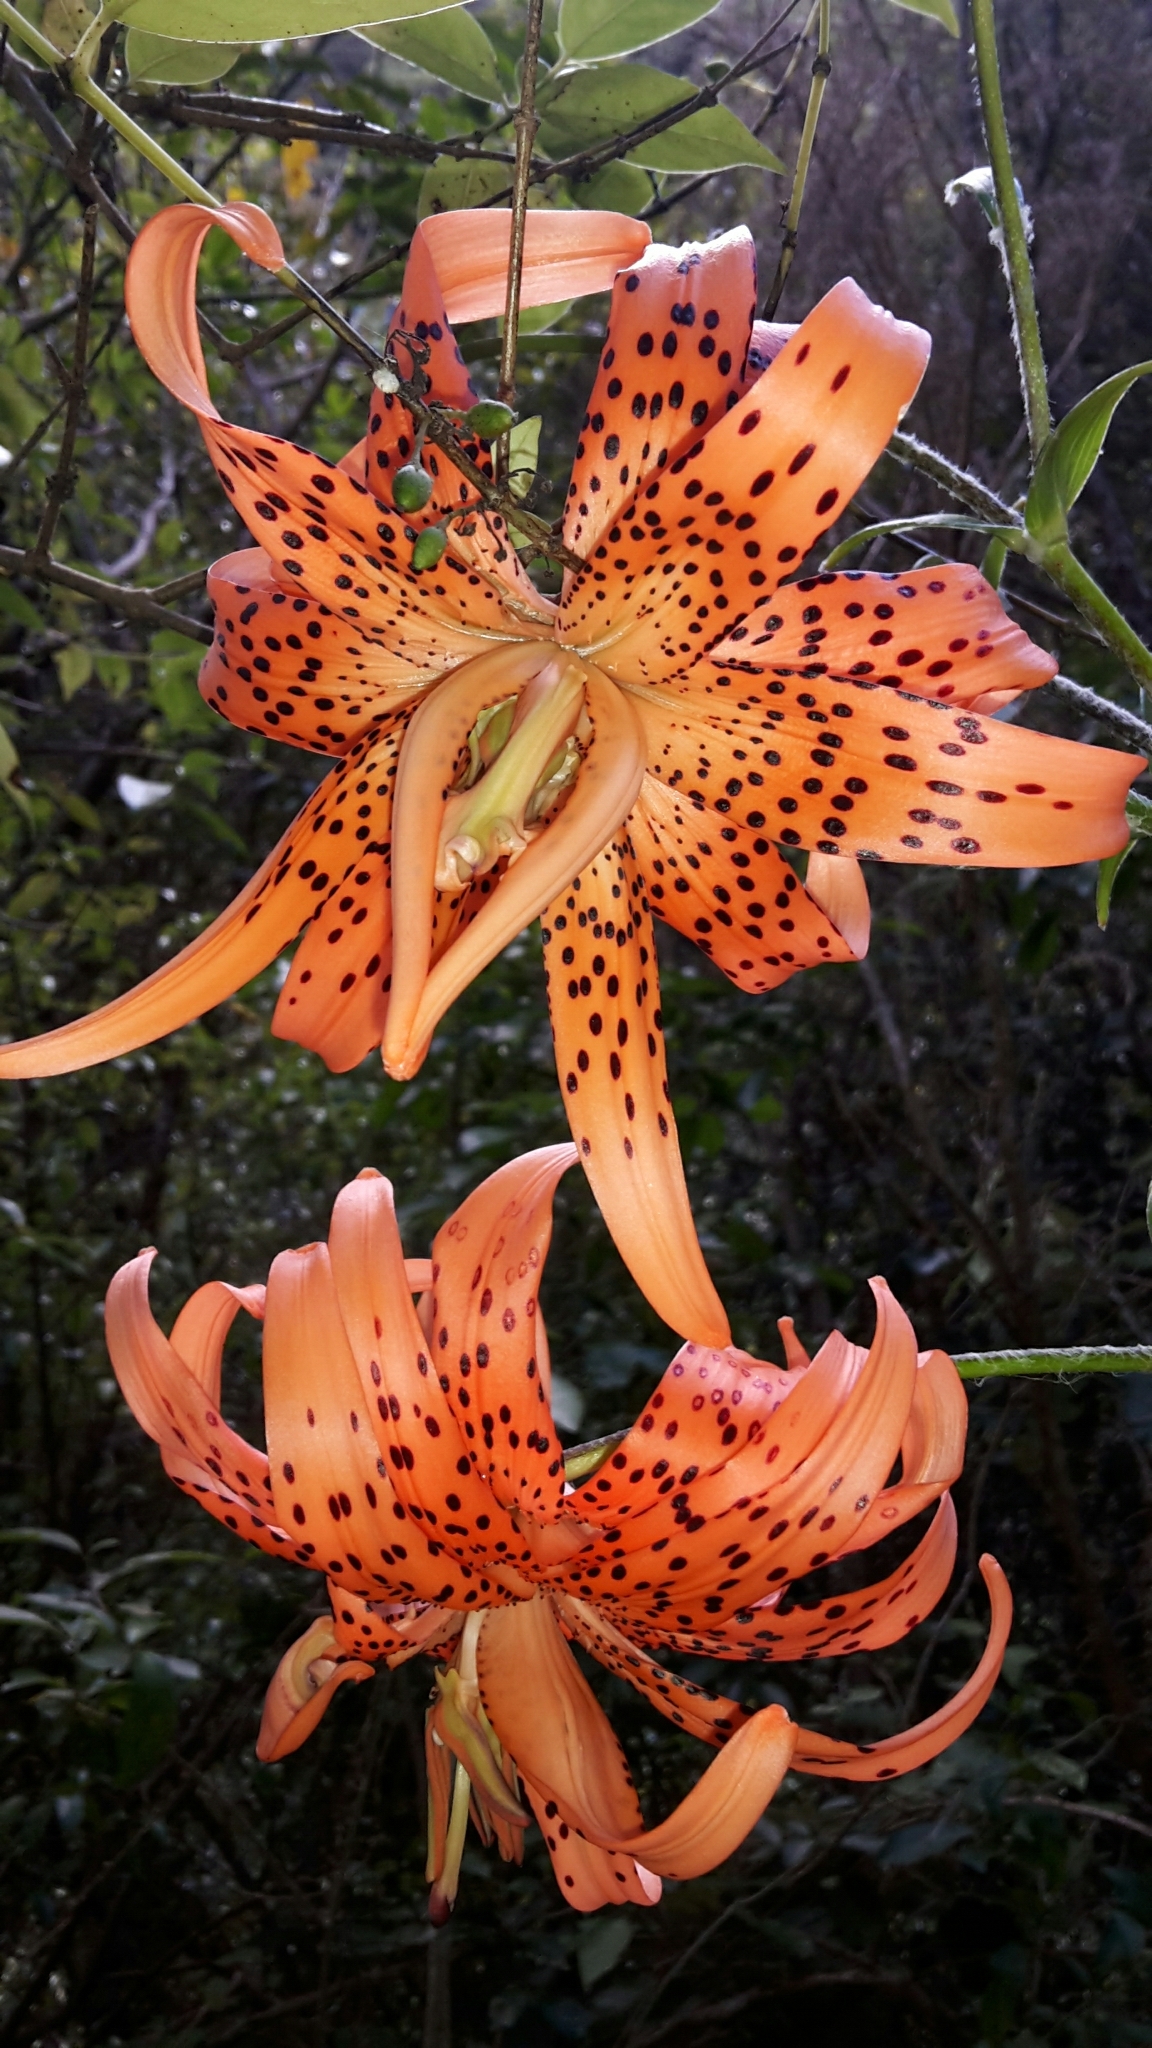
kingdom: Plantae
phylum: Tracheophyta
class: Liliopsida
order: Liliales
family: Liliaceae
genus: Lilium
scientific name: Lilium lancifolium
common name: Tiger lily
